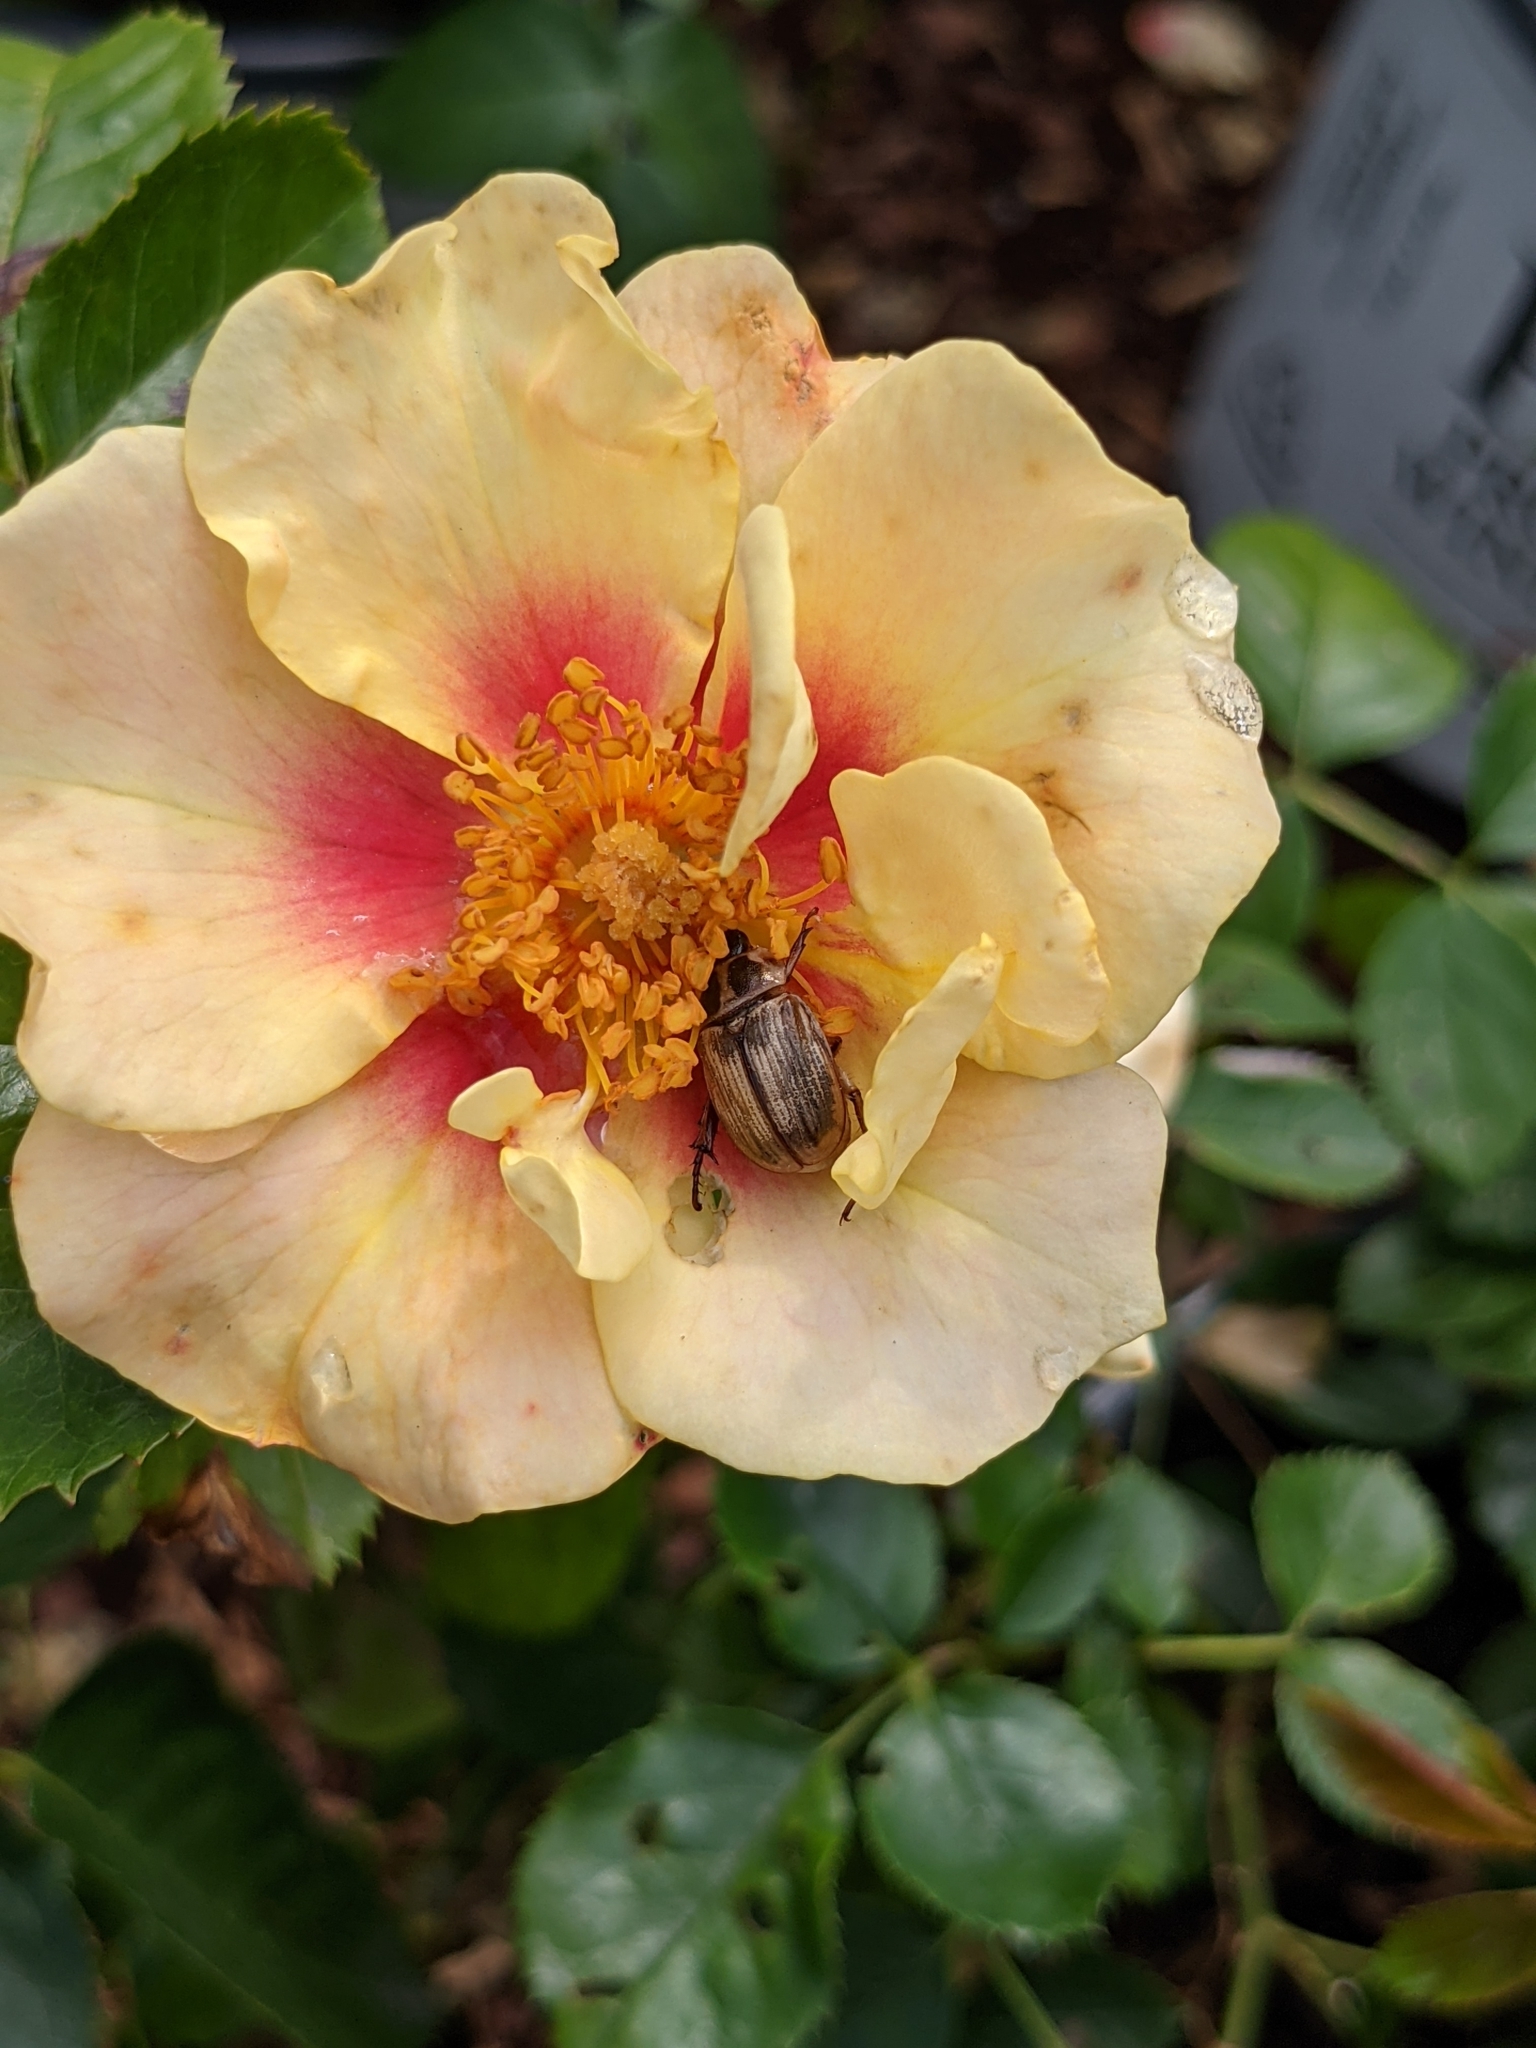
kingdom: Animalia
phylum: Arthropoda
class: Insecta
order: Coleoptera
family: Scarabaeidae
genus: Exomala
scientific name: Exomala orientalis
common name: Oriental beetle
